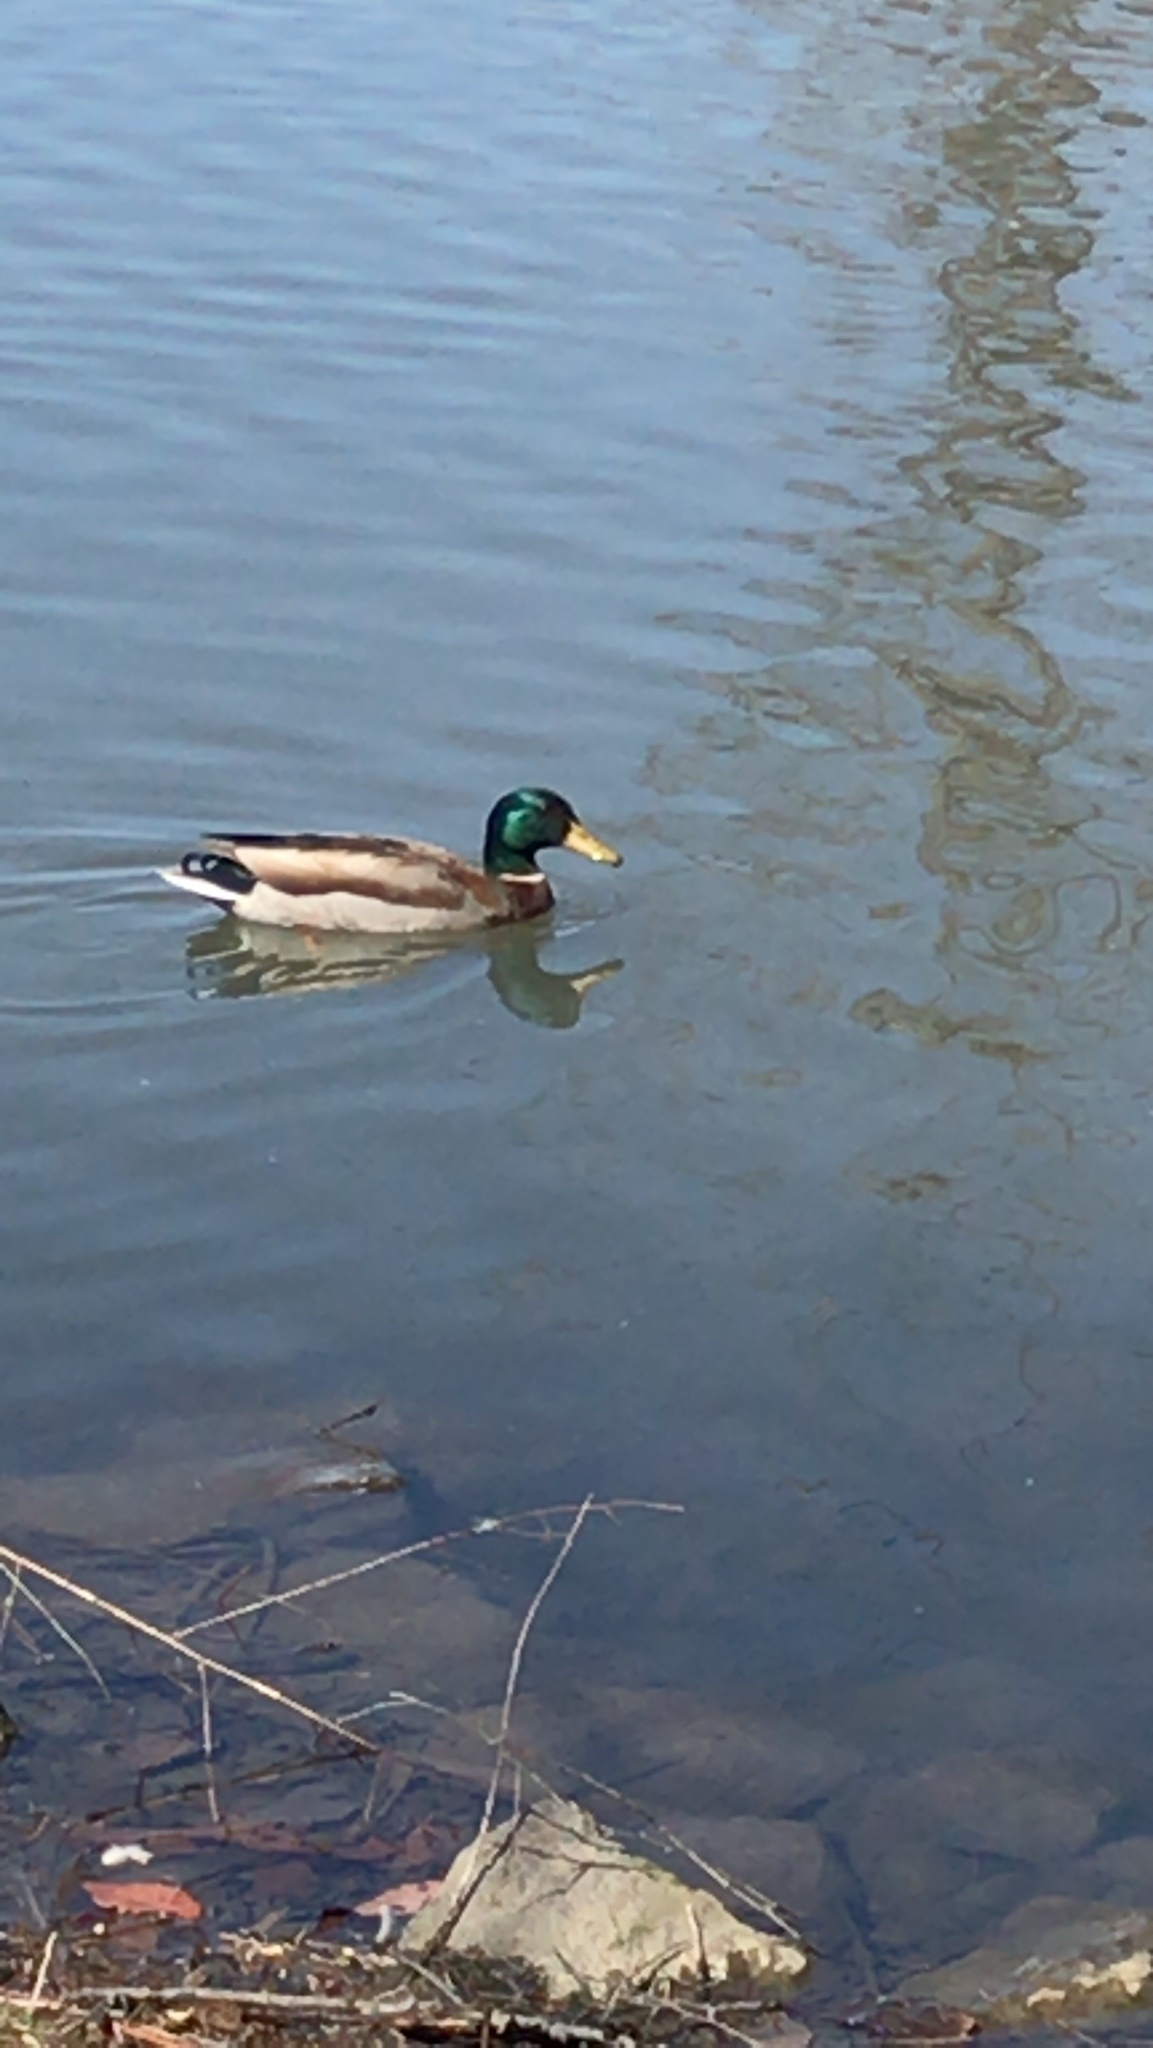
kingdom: Animalia
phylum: Chordata
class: Aves
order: Anseriformes
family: Anatidae
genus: Anas
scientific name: Anas platyrhynchos
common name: Mallard
